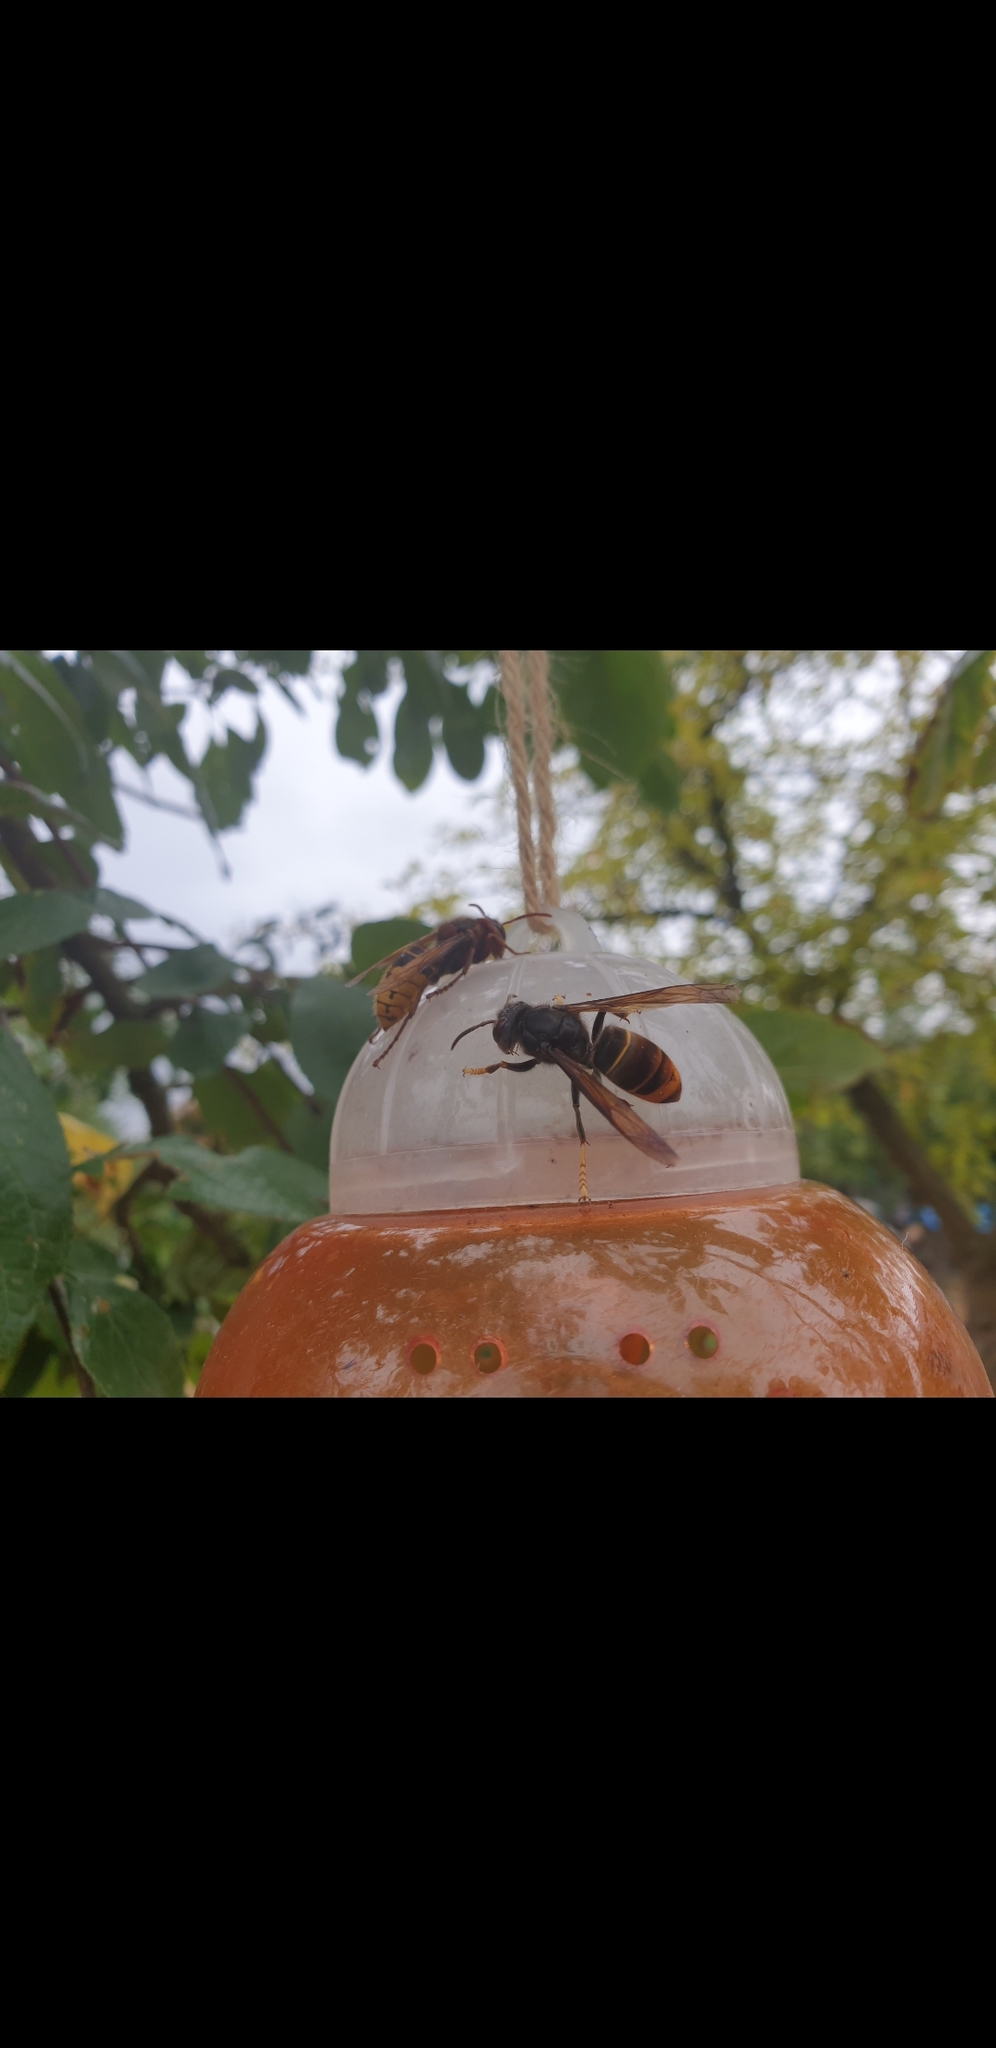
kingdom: Animalia
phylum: Arthropoda
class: Insecta
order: Hymenoptera
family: Vespidae
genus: Vespa
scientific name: Vespa velutina
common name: Asian hornet
